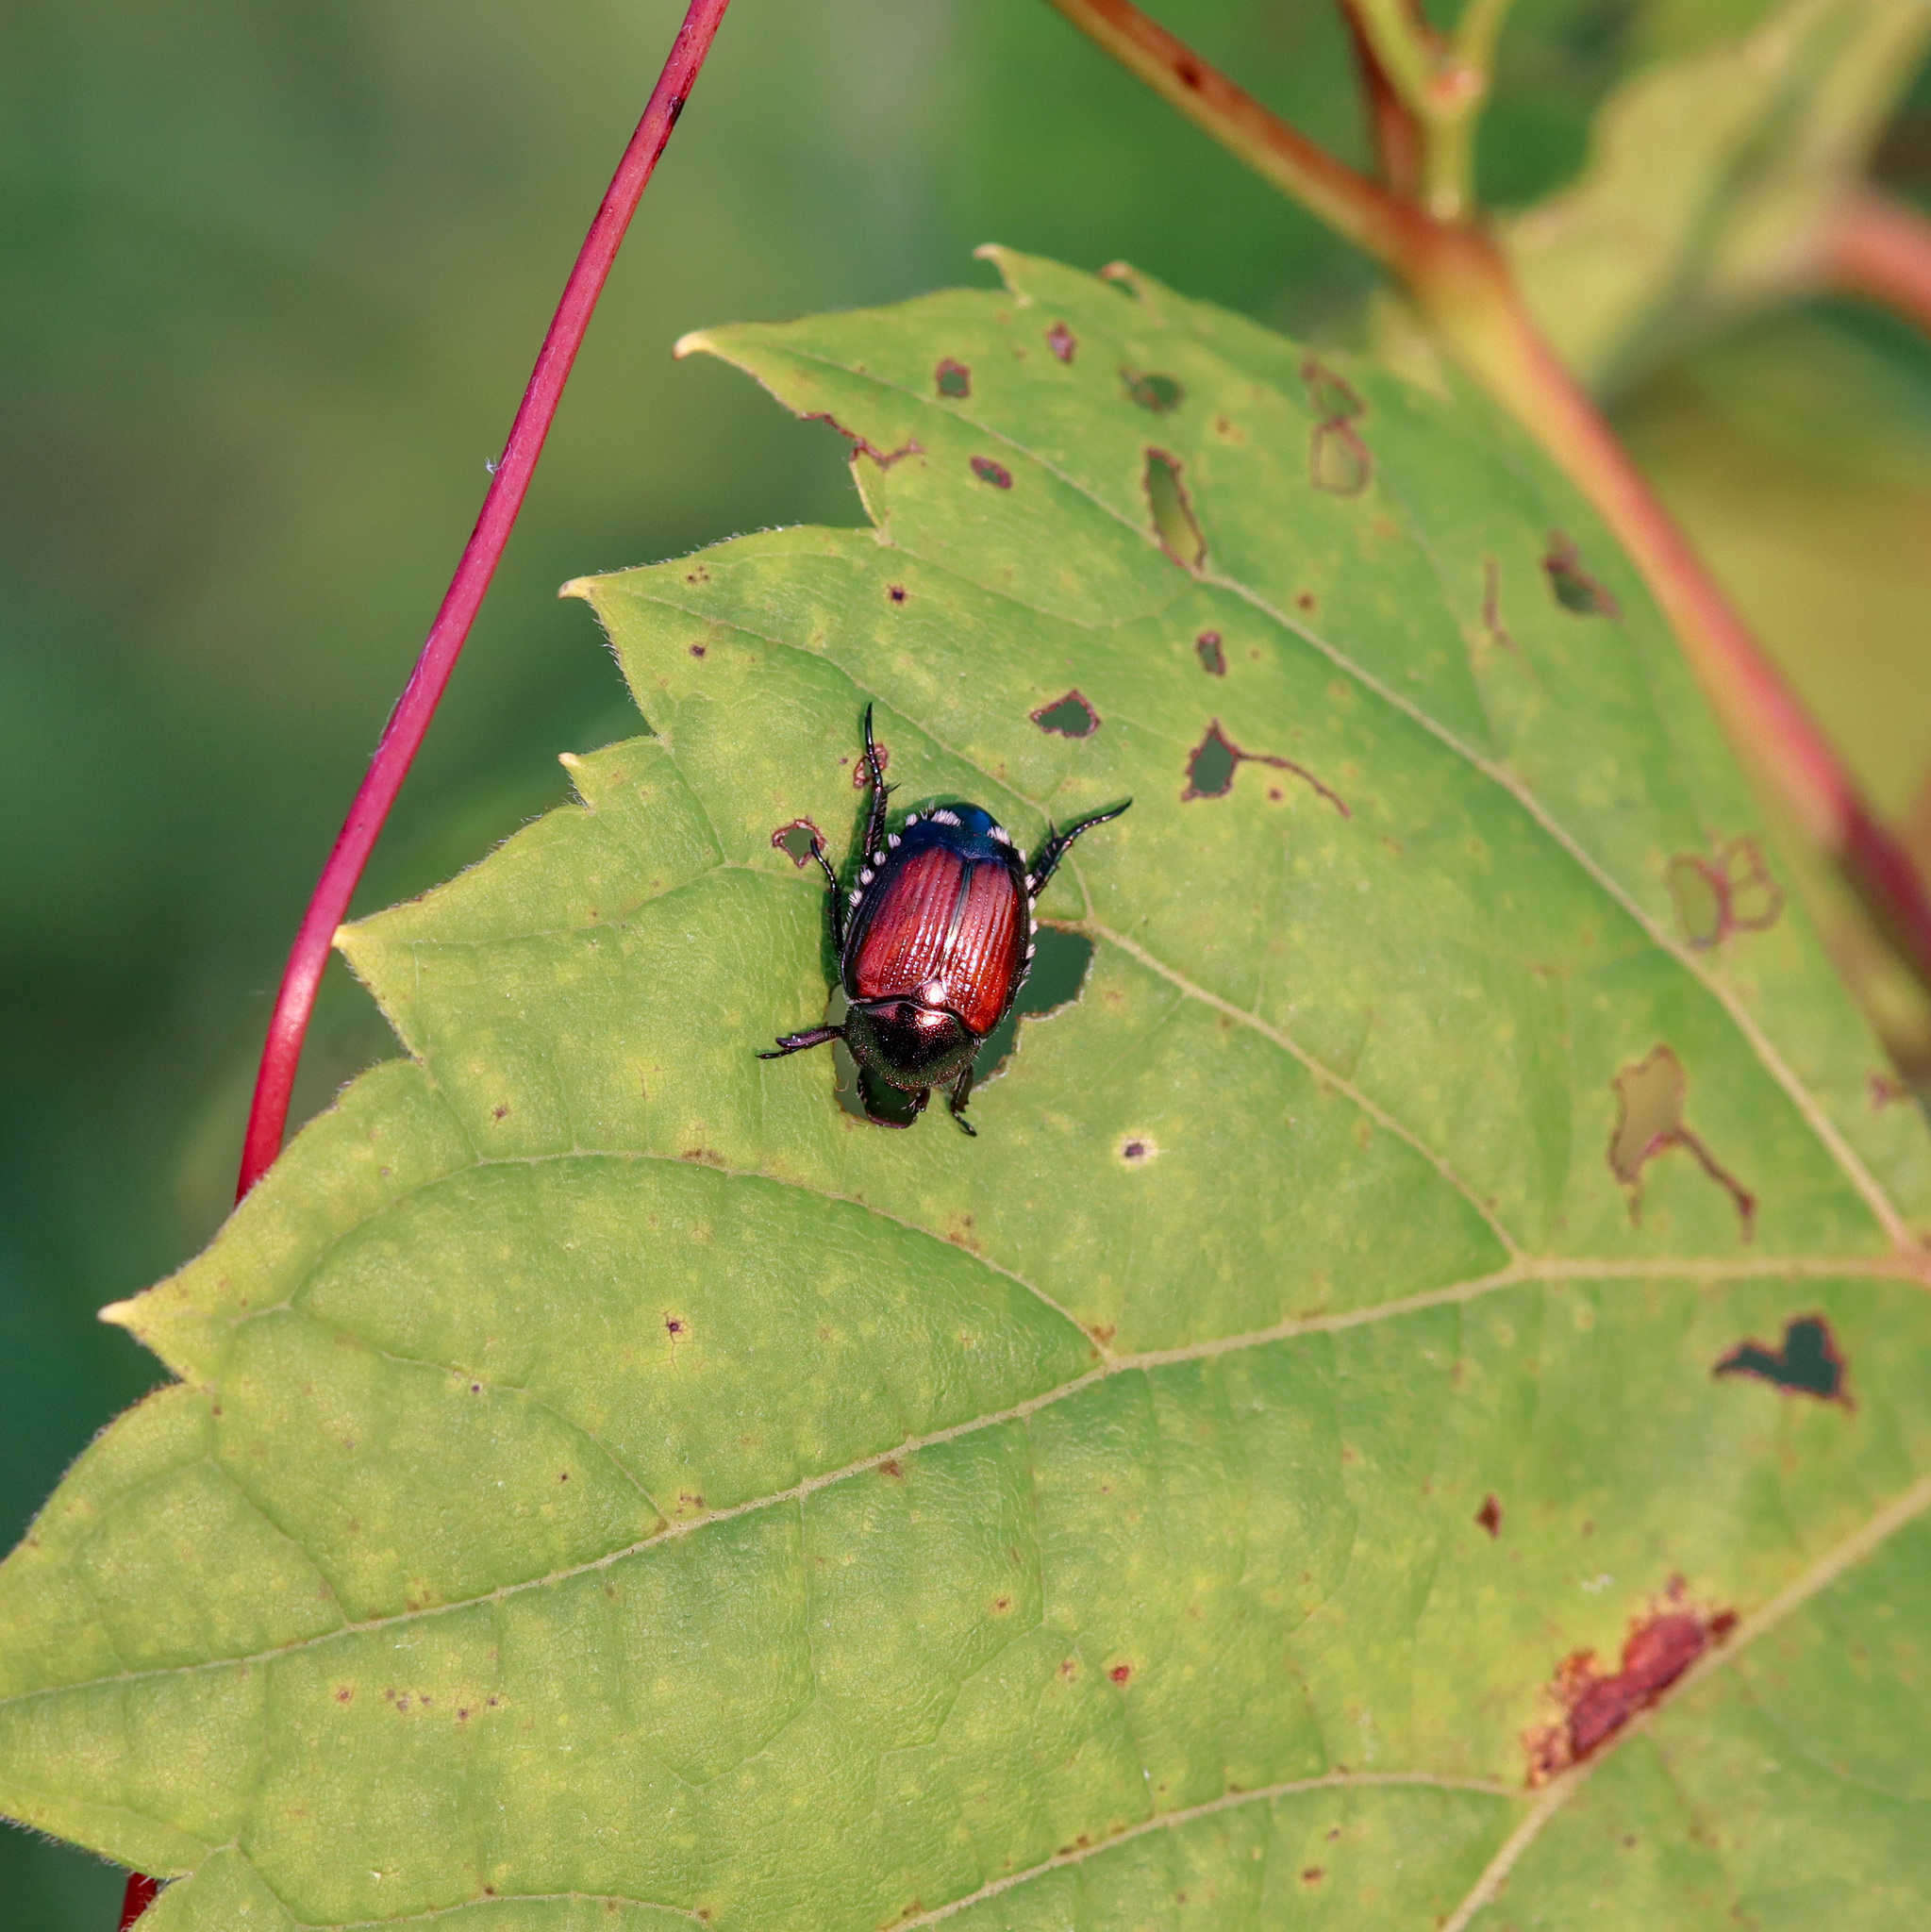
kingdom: Animalia
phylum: Arthropoda
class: Insecta
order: Coleoptera
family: Scarabaeidae
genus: Popillia
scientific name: Popillia japonica
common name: Japanese beetle
